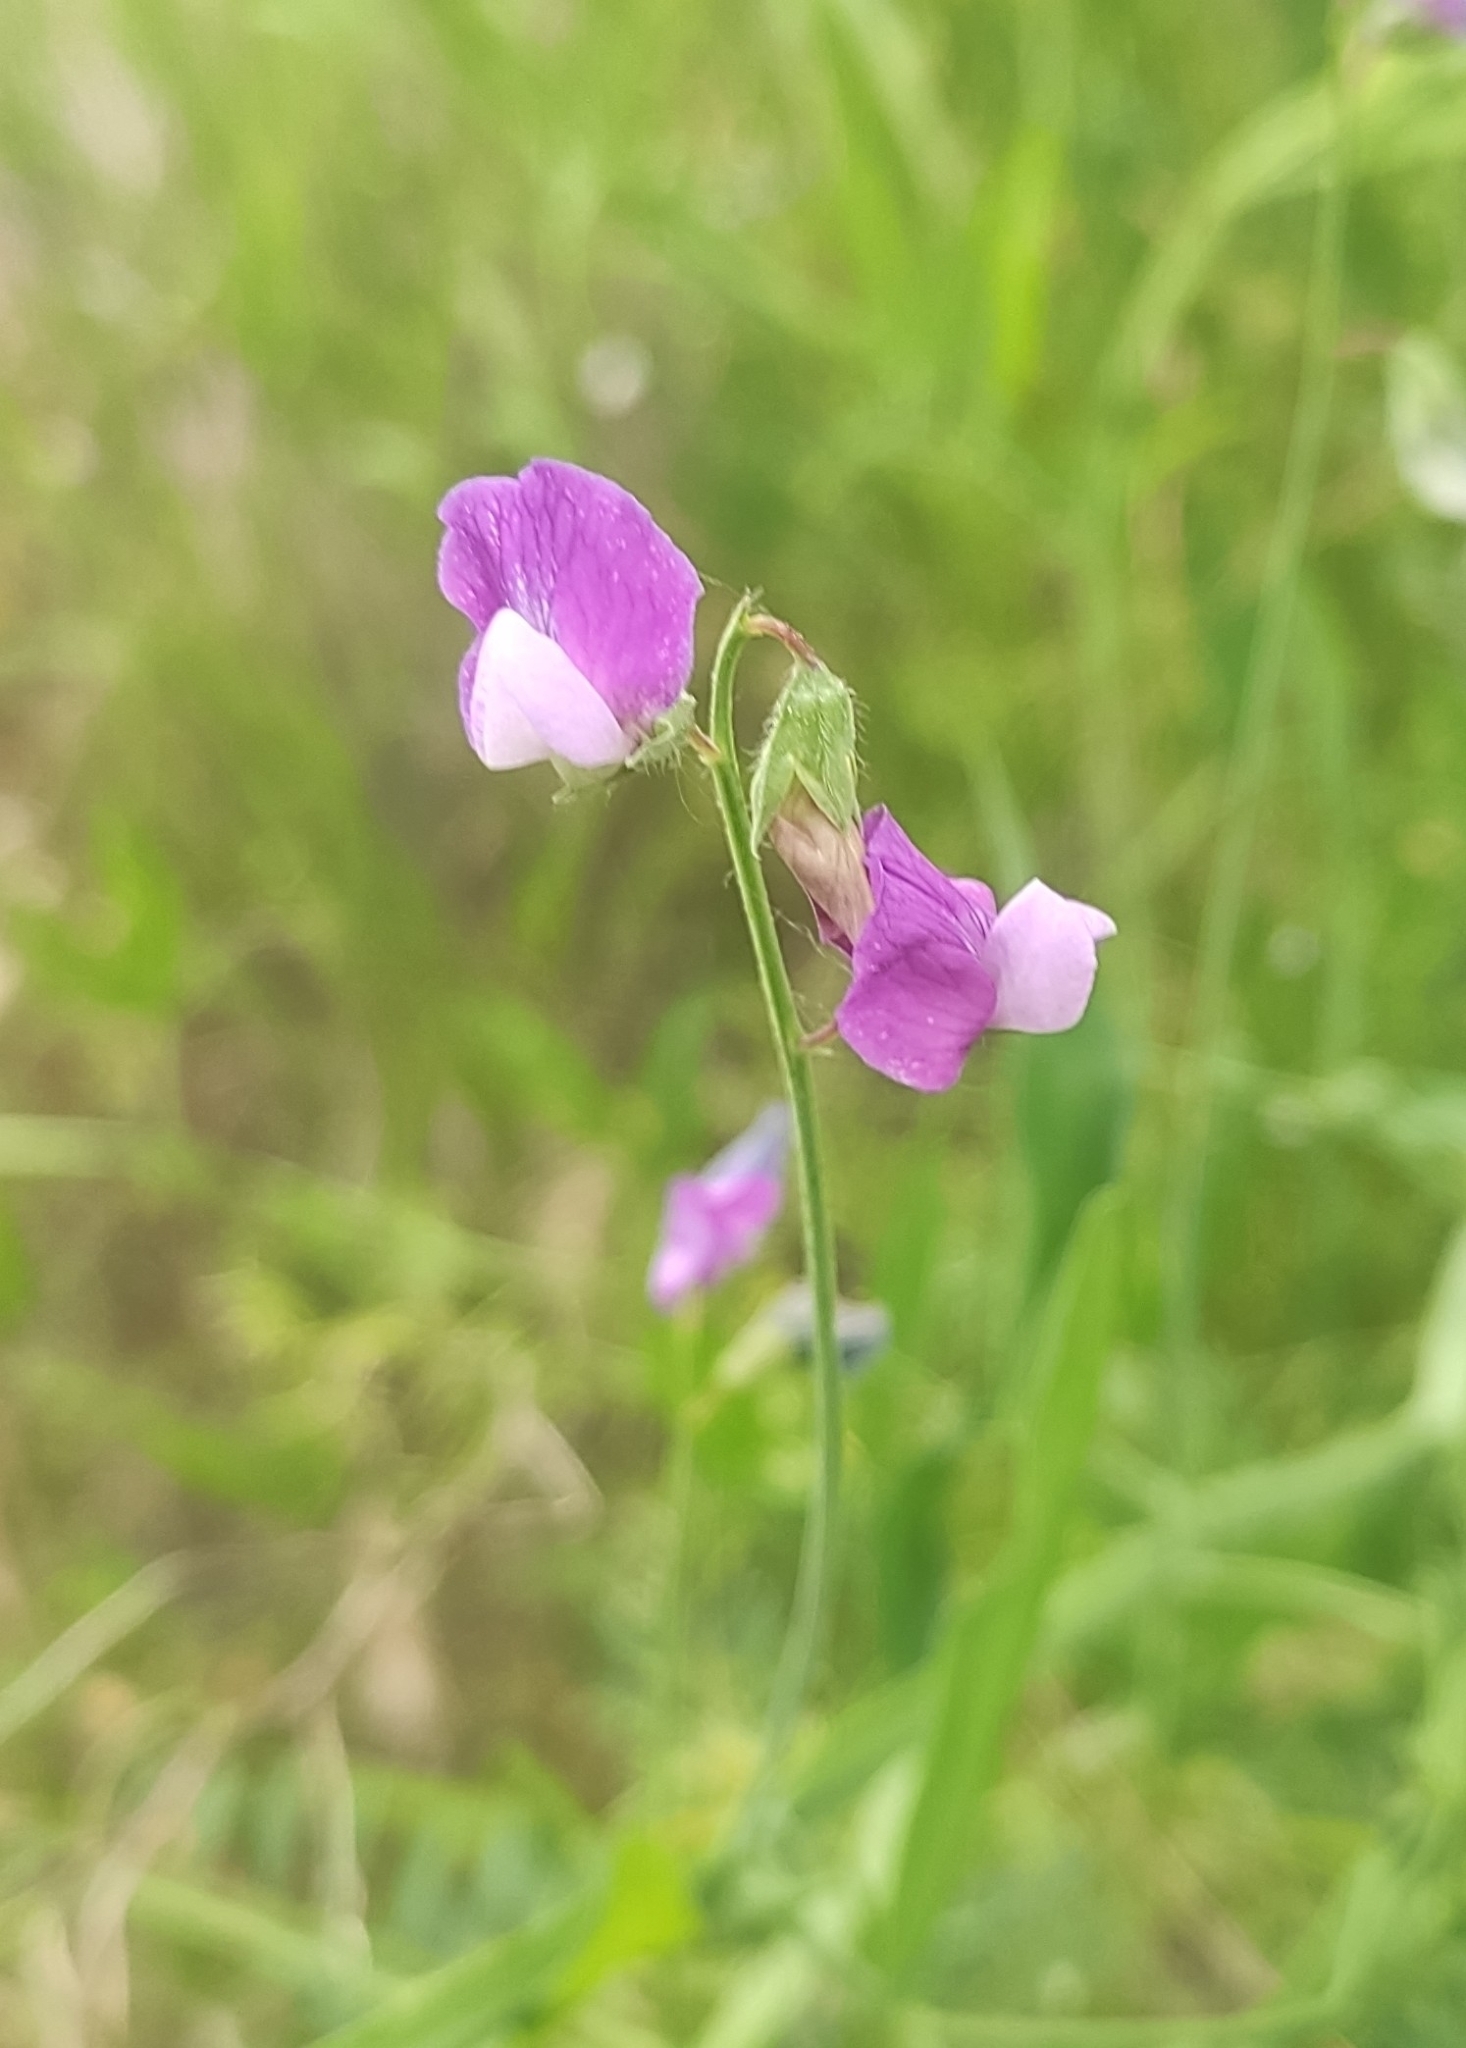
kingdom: Plantae
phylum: Tracheophyta
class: Magnoliopsida
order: Fabales
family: Fabaceae
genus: Lathyrus
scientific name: Lathyrus incurvus
